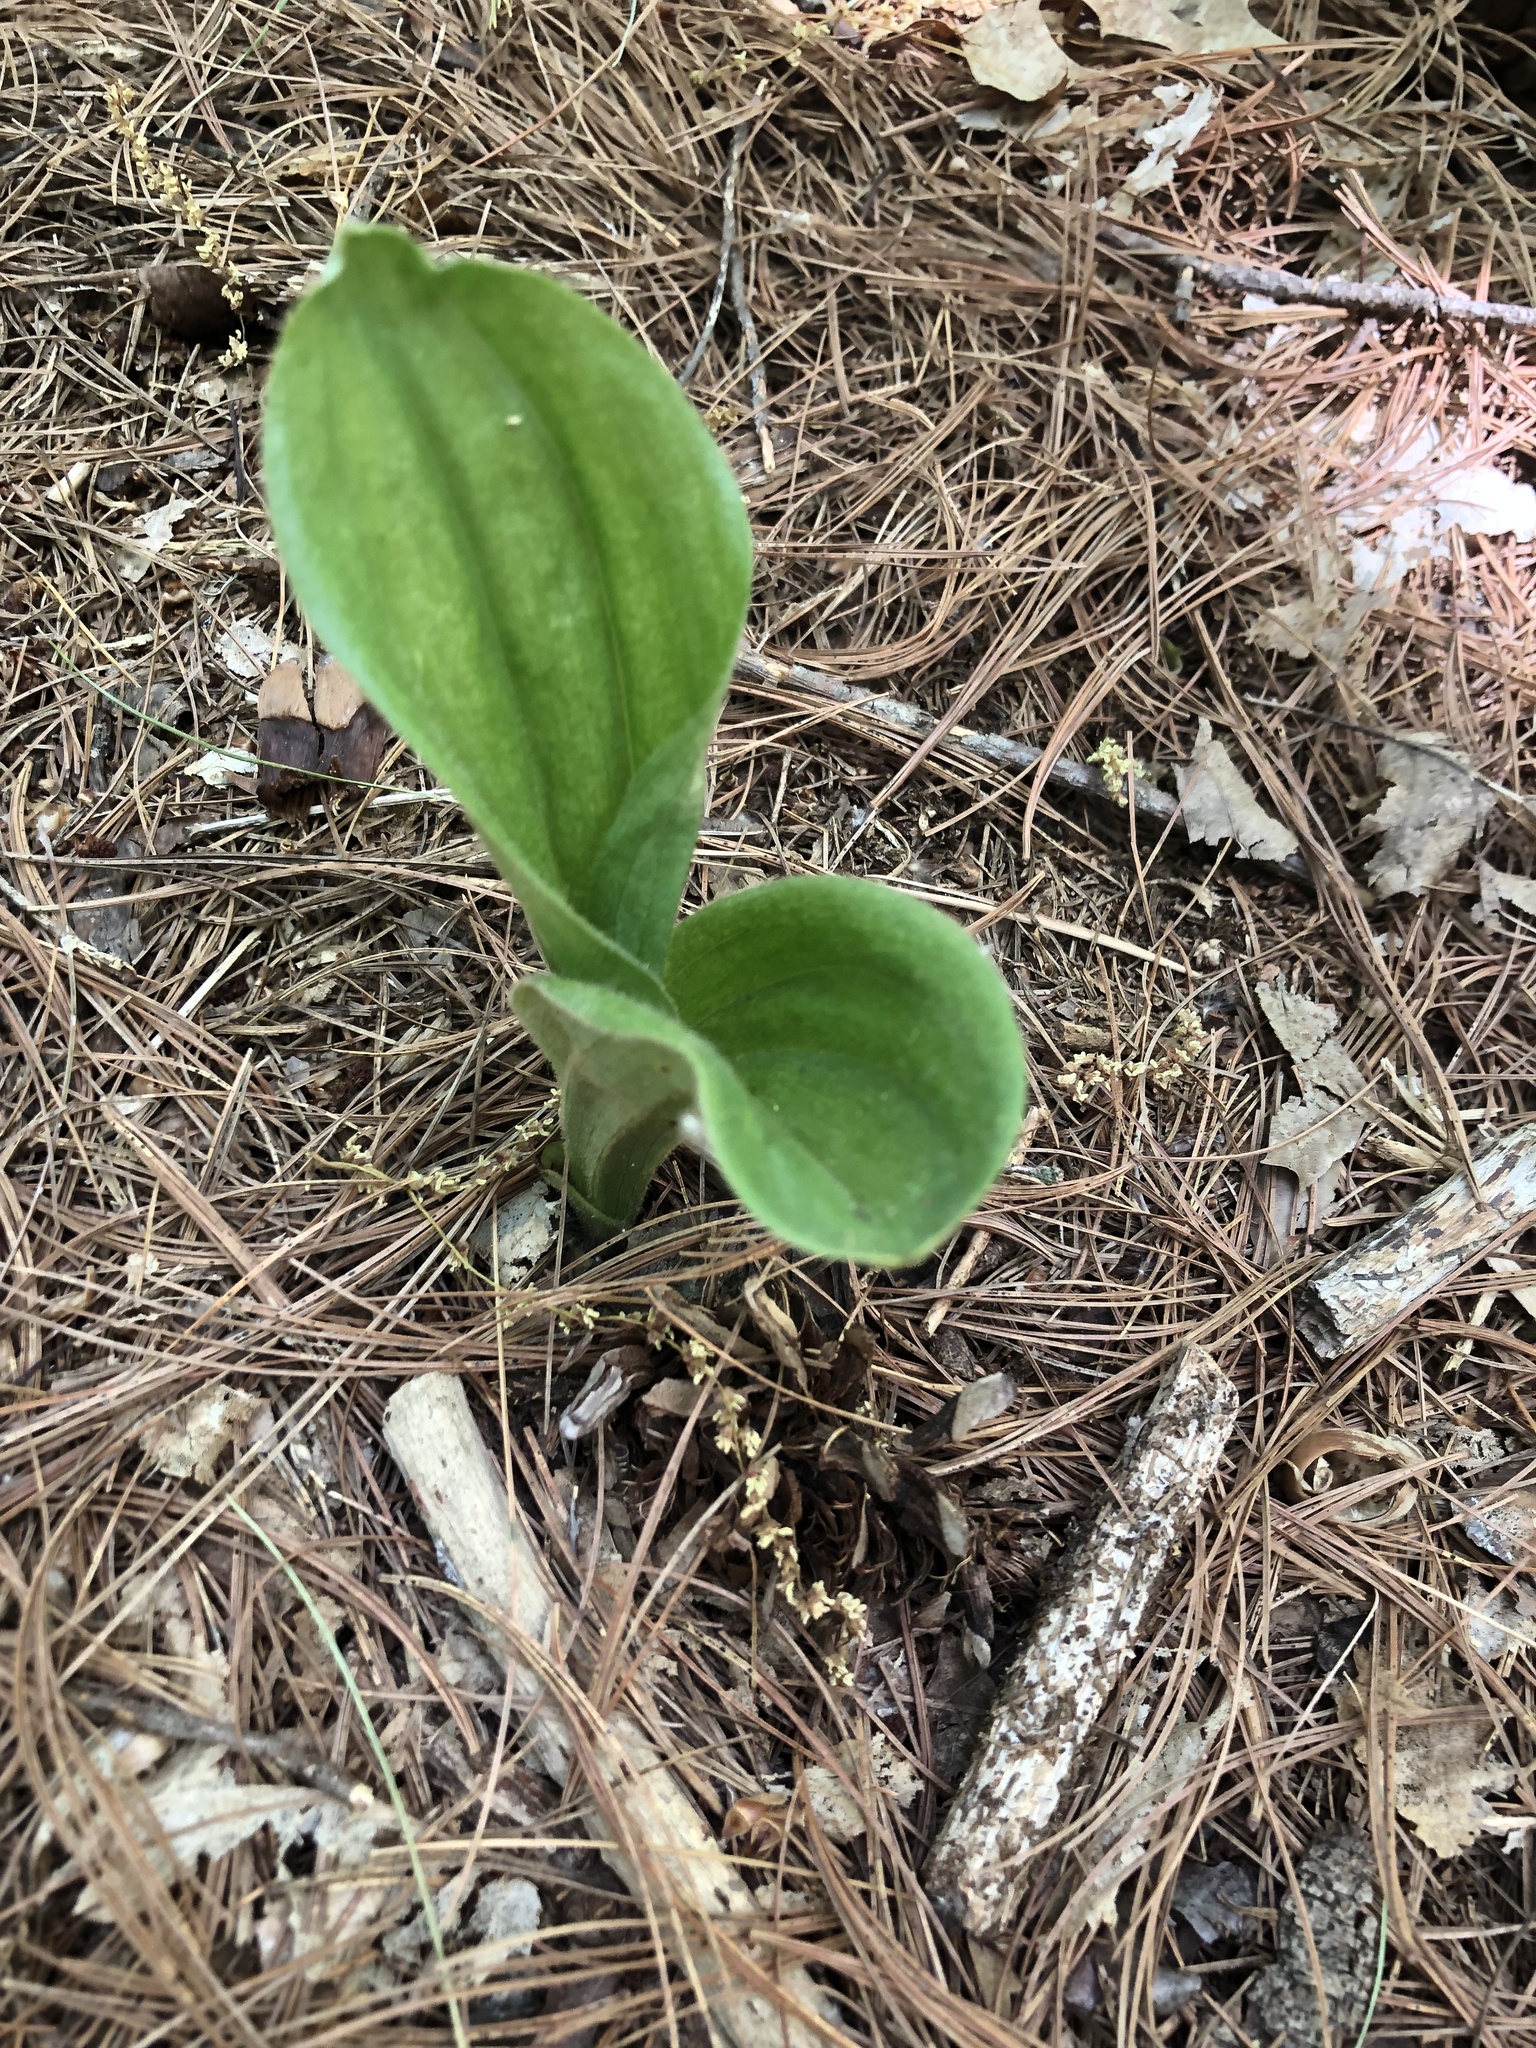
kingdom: Plantae
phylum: Tracheophyta
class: Liliopsida
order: Asparagales
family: Orchidaceae
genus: Cypripedium
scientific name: Cypripedium acaule
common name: Pink lady's-slipper
